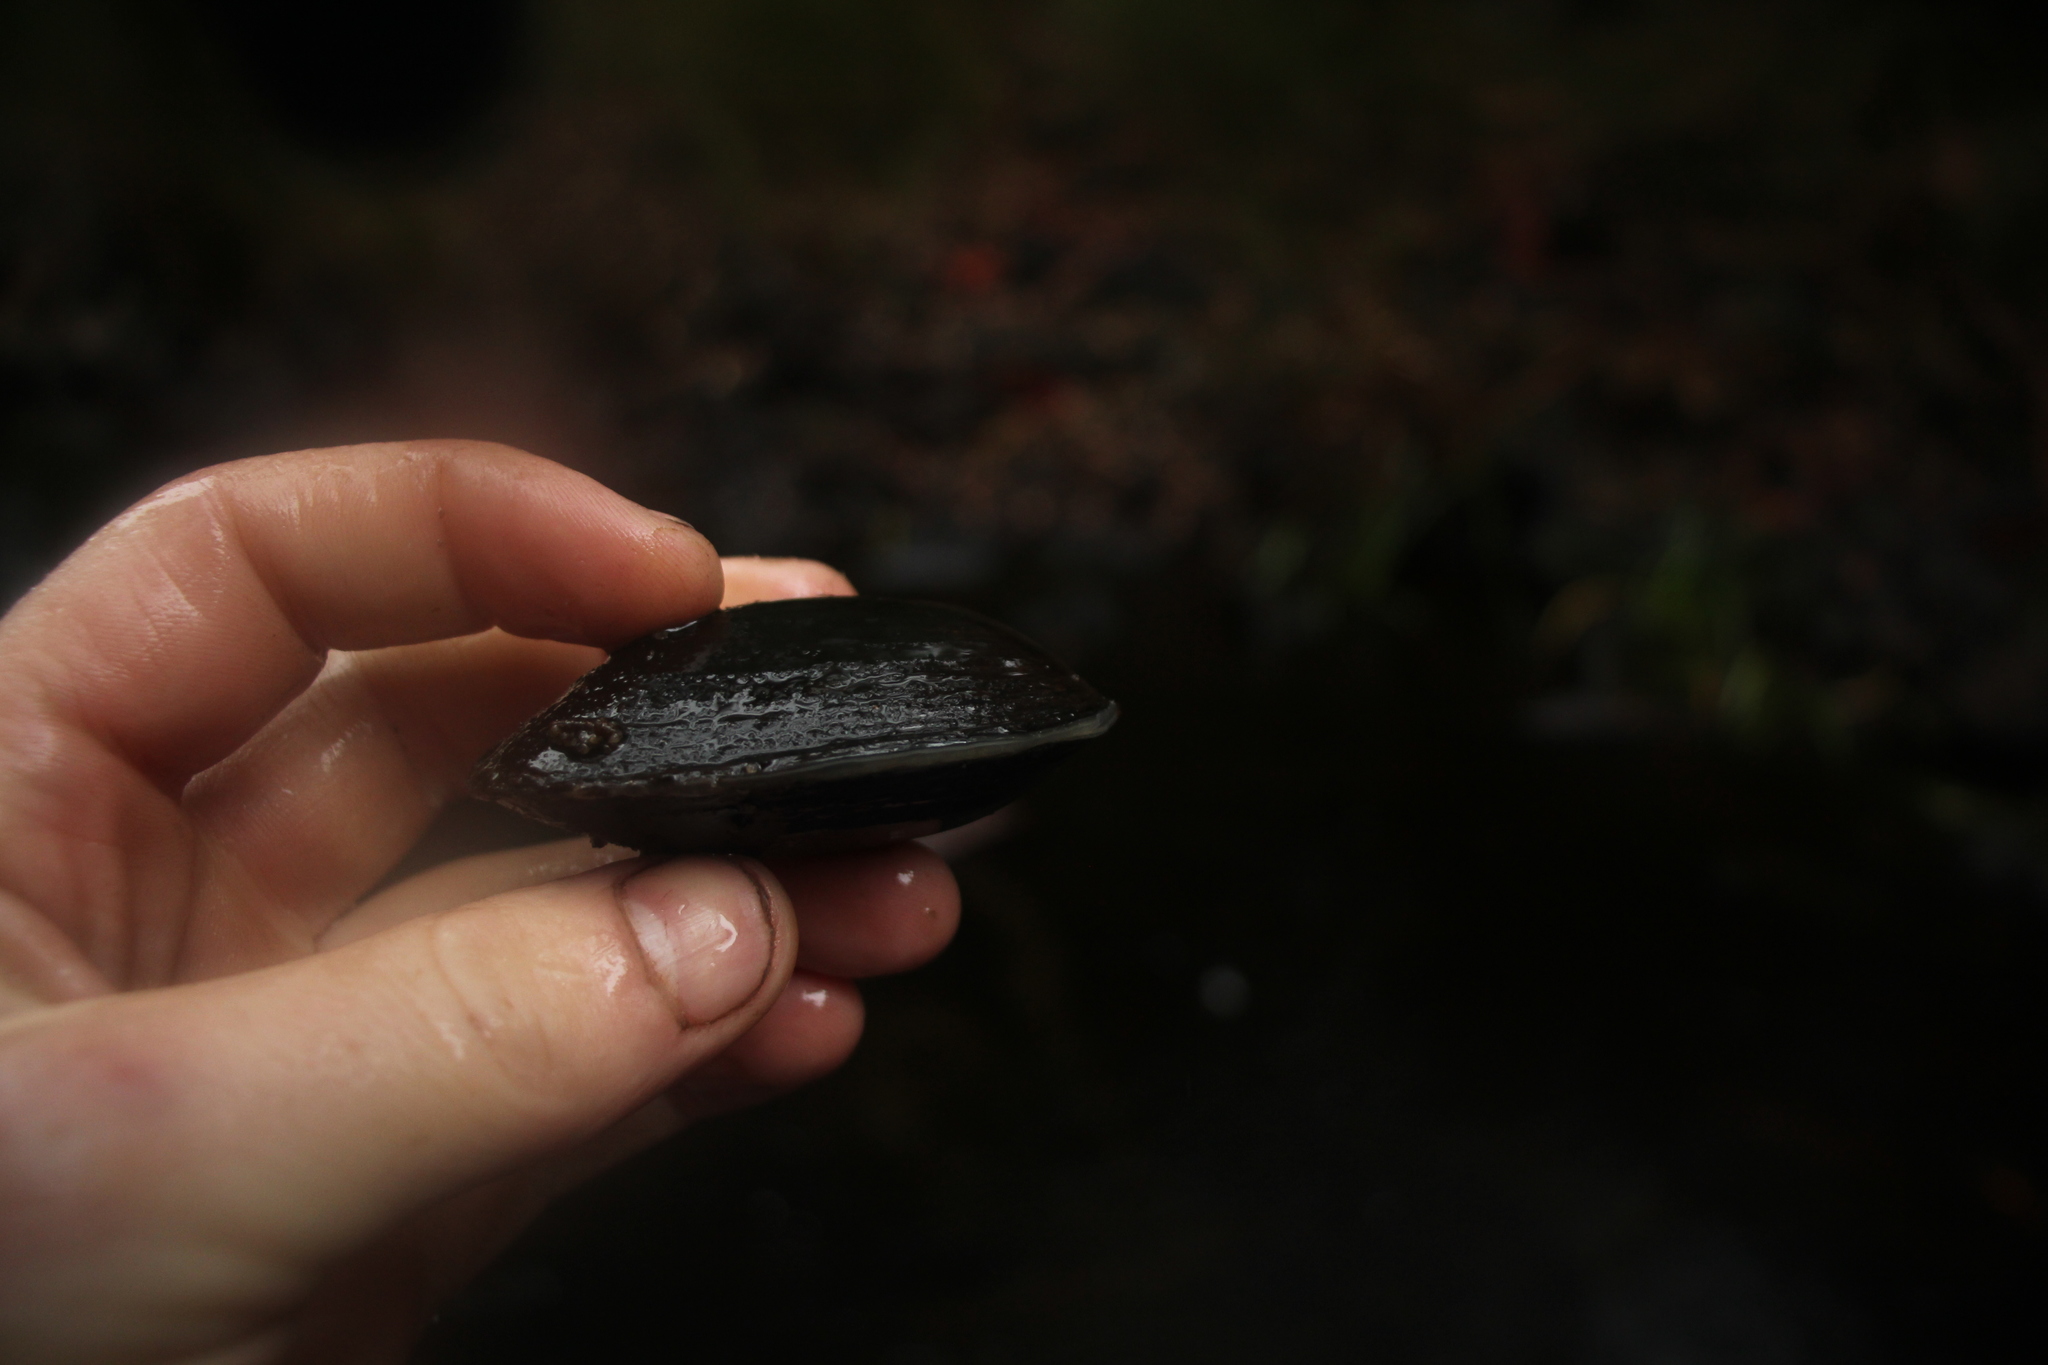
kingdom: Animalia
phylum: Mollusca
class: Bivalvia
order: Unionida
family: Hyriidae
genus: Westralunio
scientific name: Westralunio inbisi
